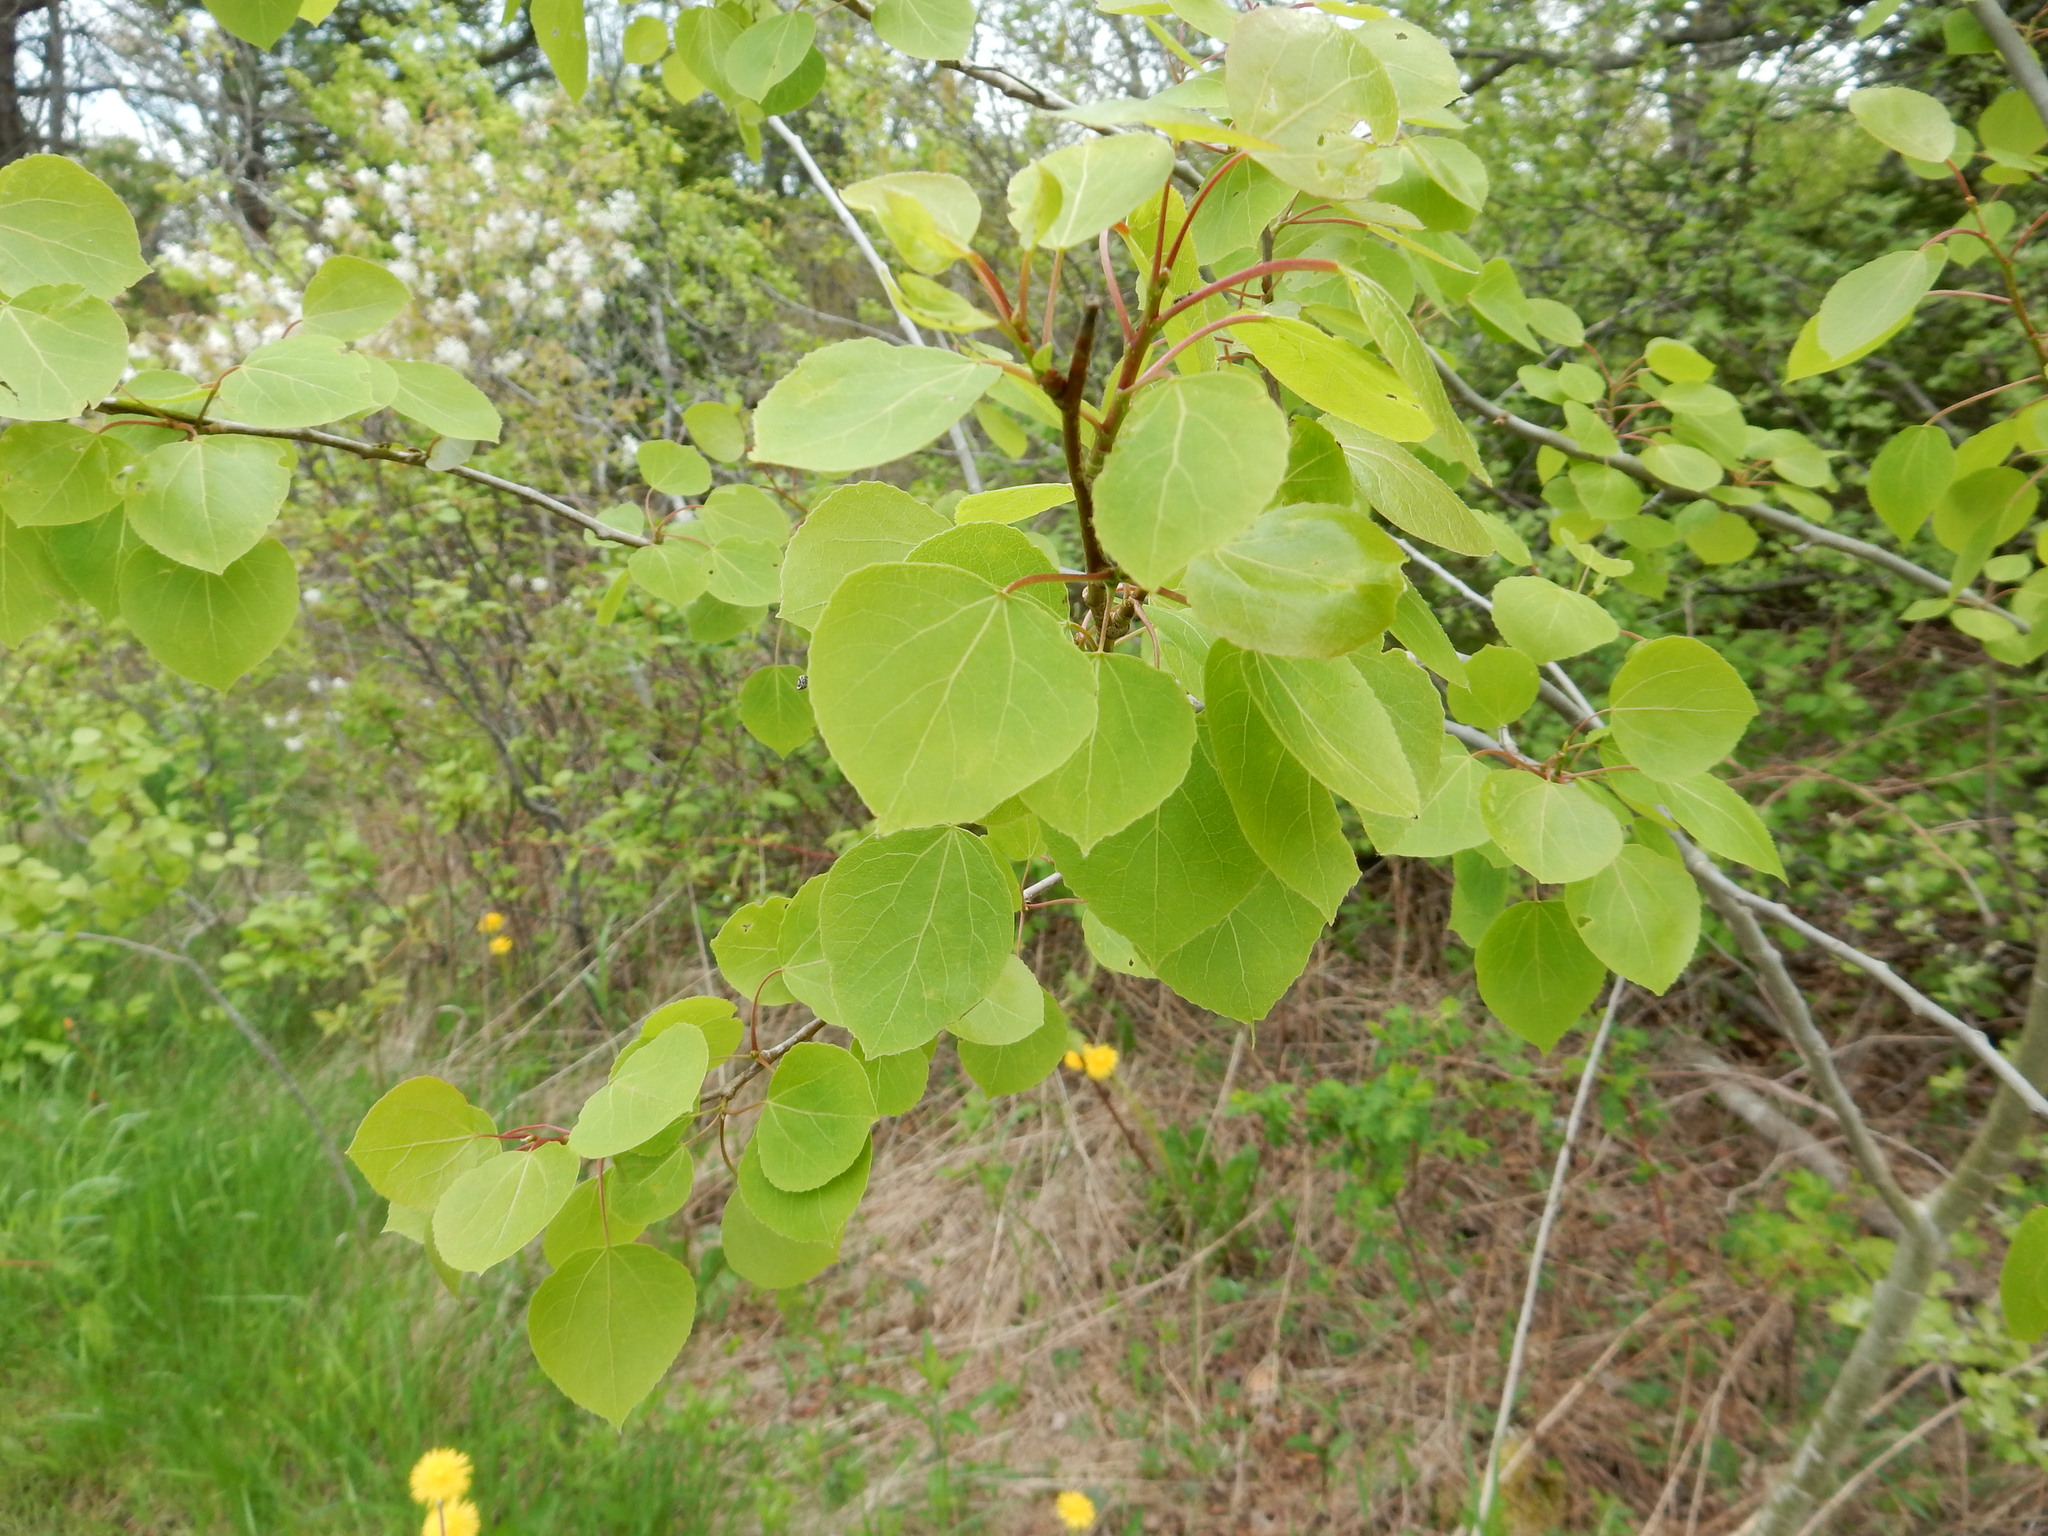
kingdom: Plantae
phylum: Tracheophyta
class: Magnoliopsida
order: Malpighiales
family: Salicaceae
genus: Populus
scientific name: Populus tremuloides
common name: Quaking aspen
